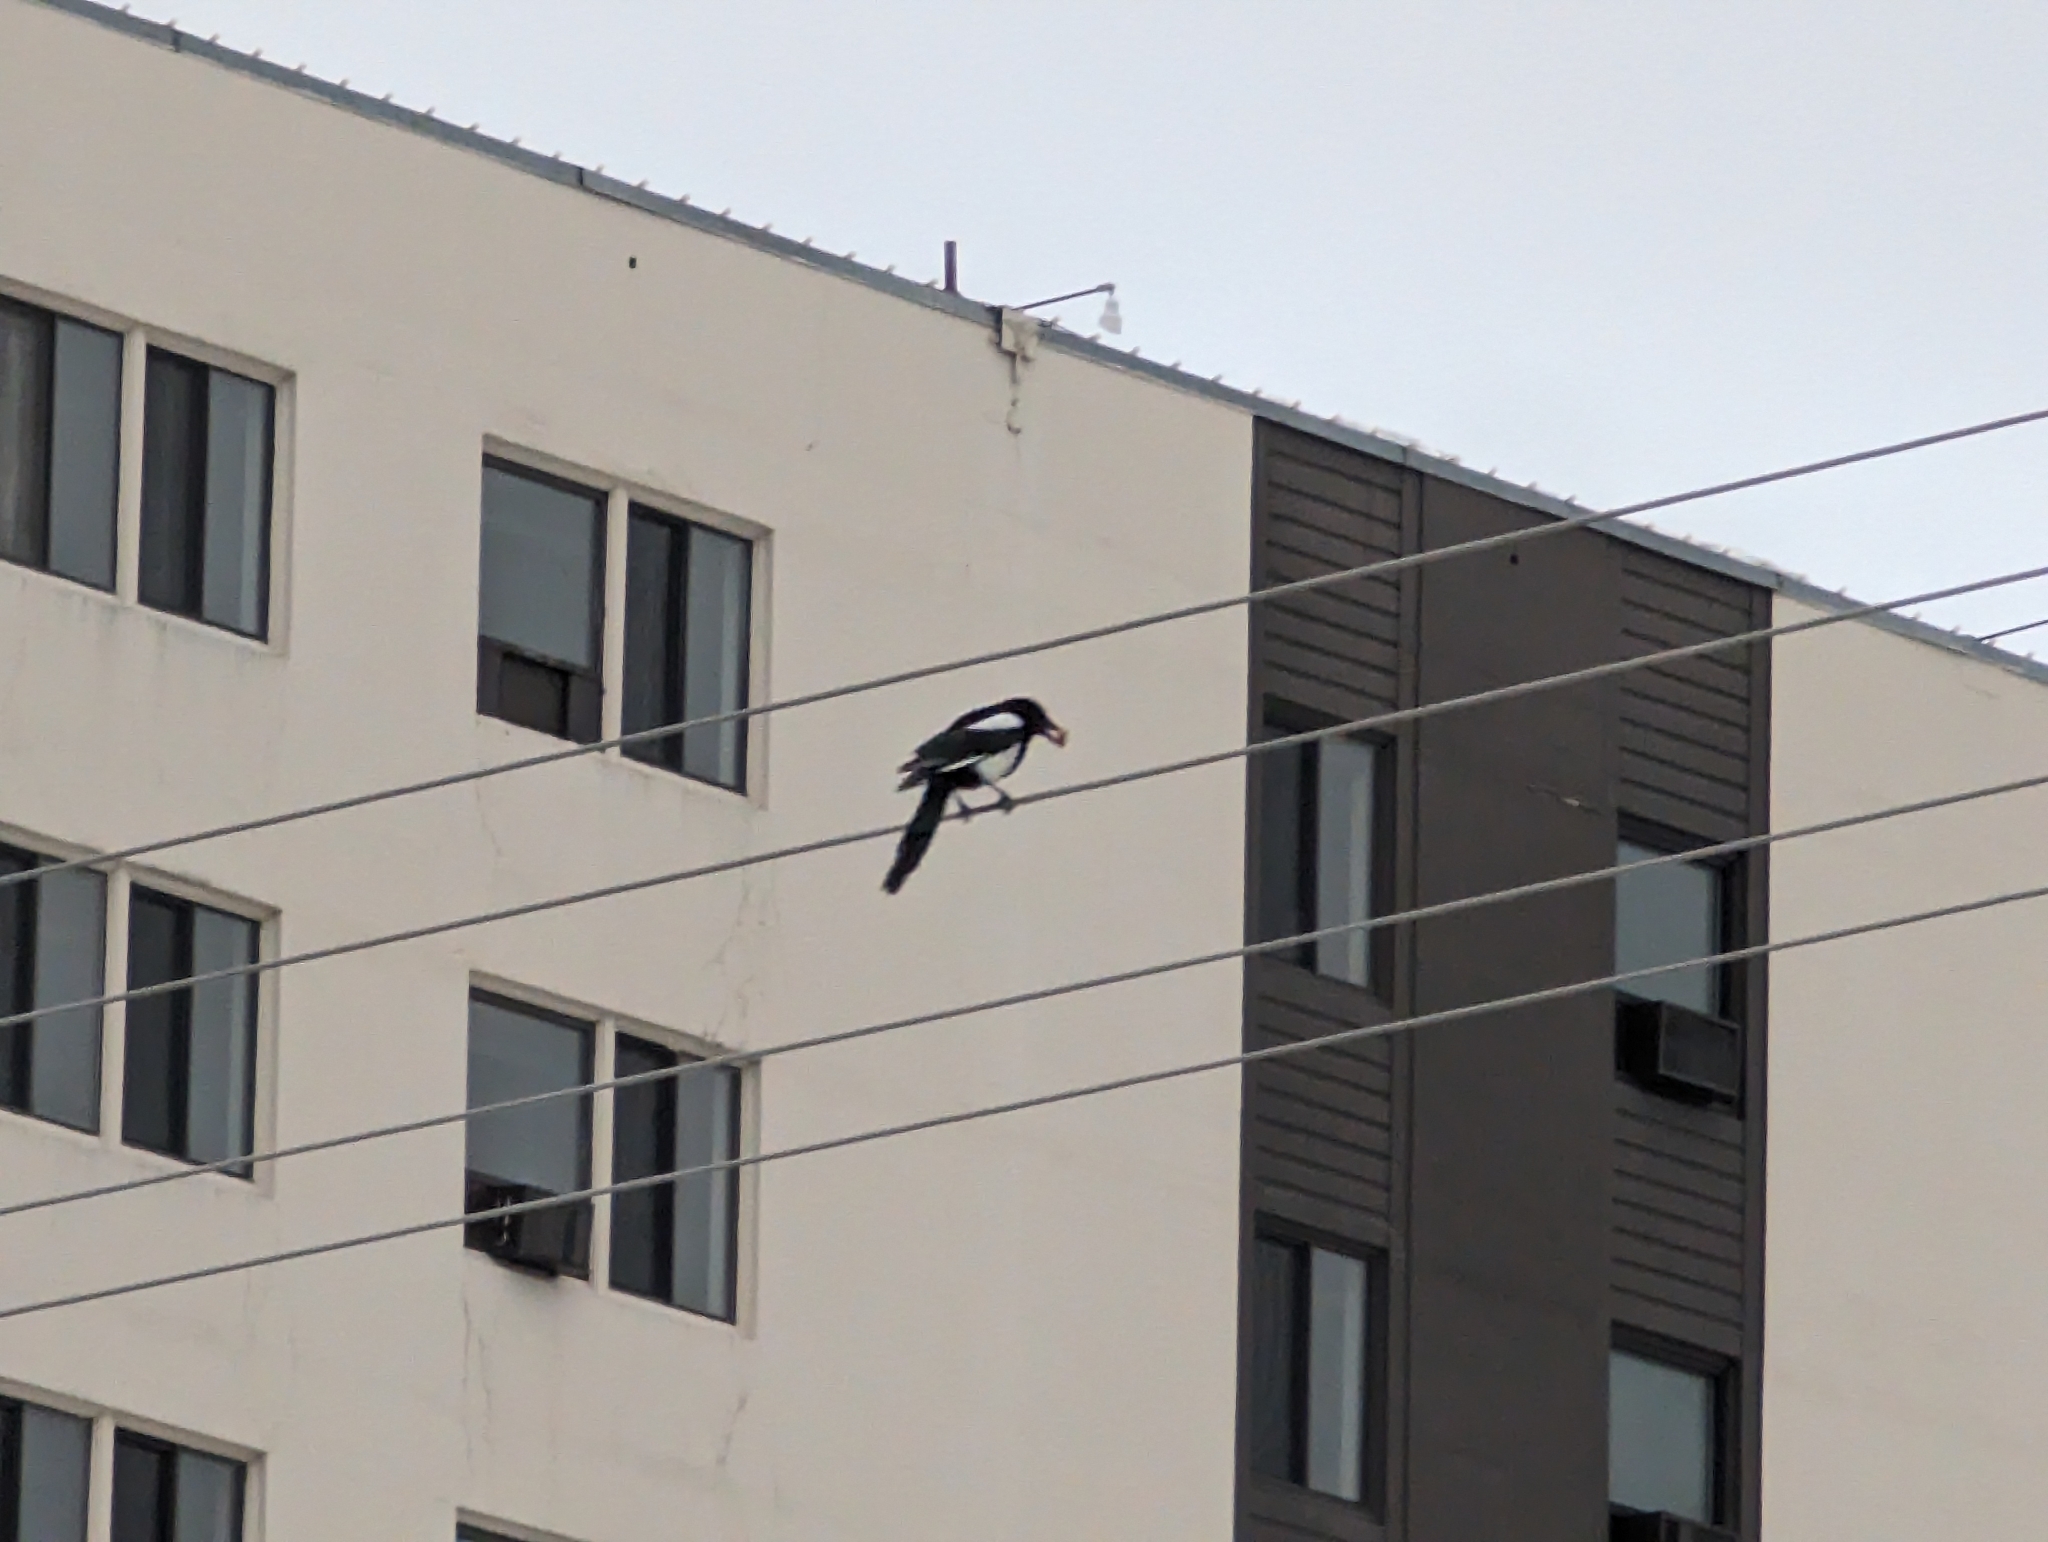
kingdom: Animalia
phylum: Chordata
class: Aves
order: Passeriformes
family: Corvidae
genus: Pica
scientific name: Pica hudsonia
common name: Black-billed magpie
